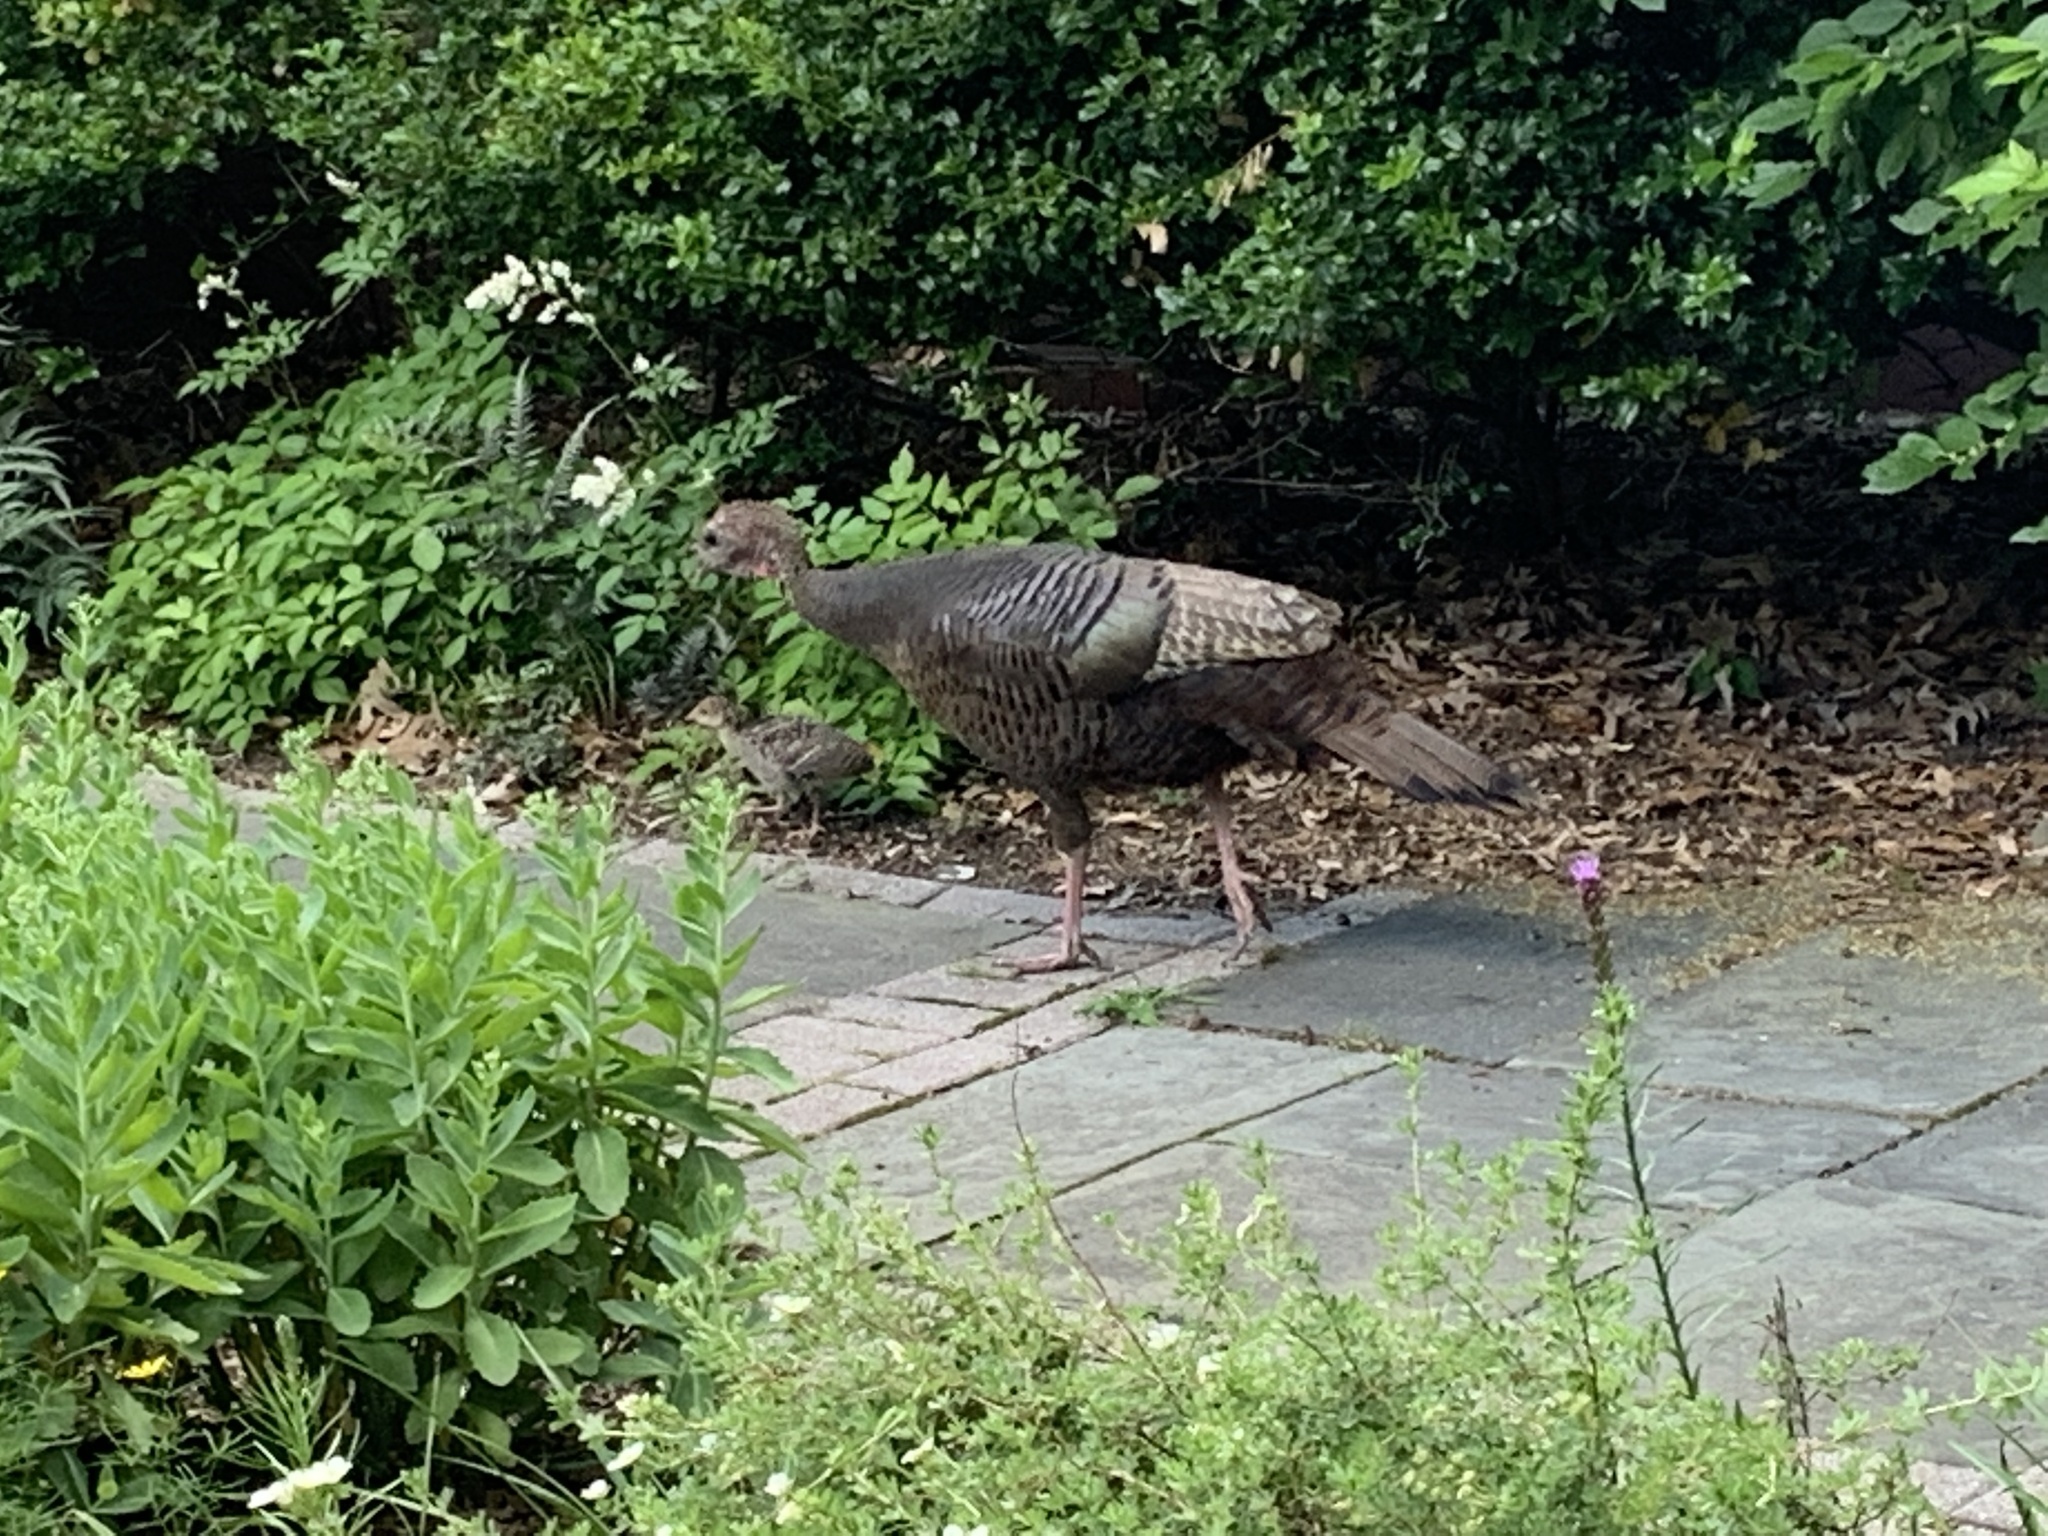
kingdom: Animalia
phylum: Chordata
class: Aves
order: Galliformes
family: Phasianidae
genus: Meleagris
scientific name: Meleagris gallopavo
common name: Wild turkey
